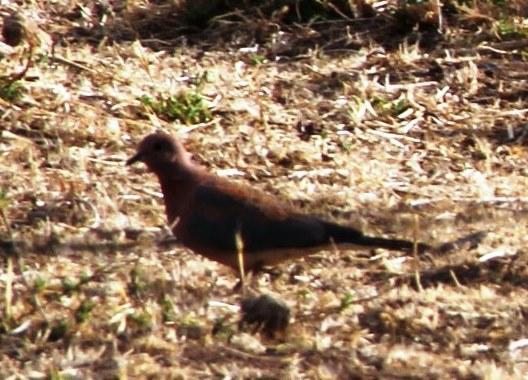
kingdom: Animalia
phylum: Chordata
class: Aves
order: Columbiformes
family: Columbidae
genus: Spilopelia
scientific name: Spilopelia senegalensis
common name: Laughing dove
